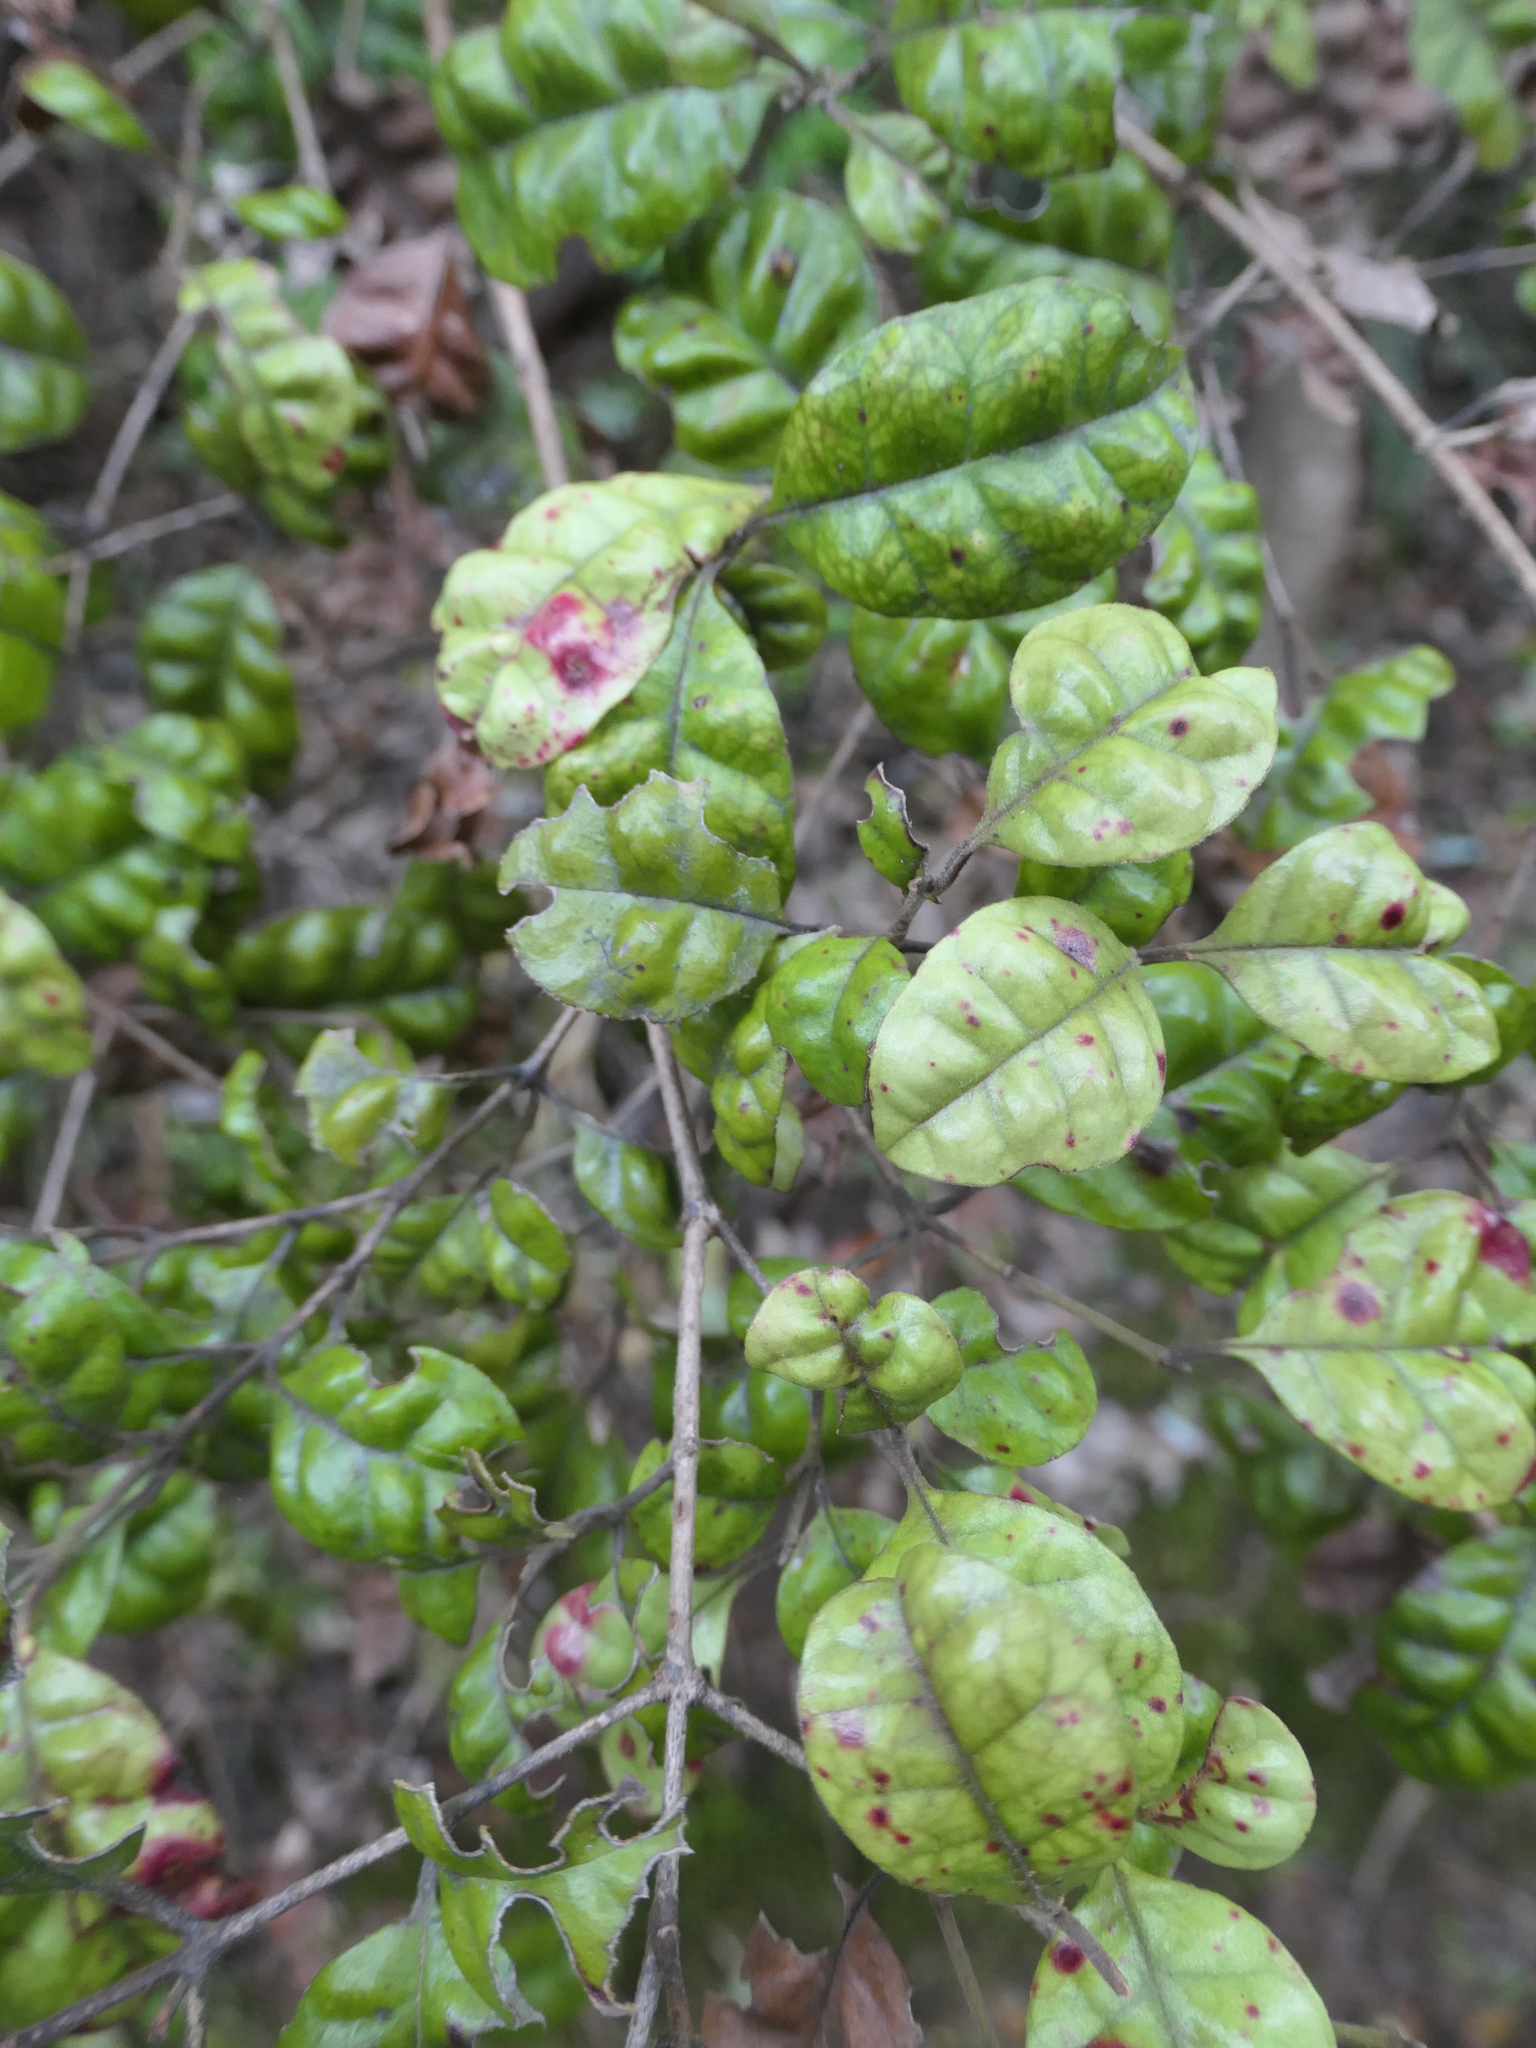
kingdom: Plantae
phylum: Tracheophyta
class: Magnoliopsida
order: Myrtales
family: Myrtaceae
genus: Lophomyrtus
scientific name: Lophomyrtus bullata
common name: Rama rama
